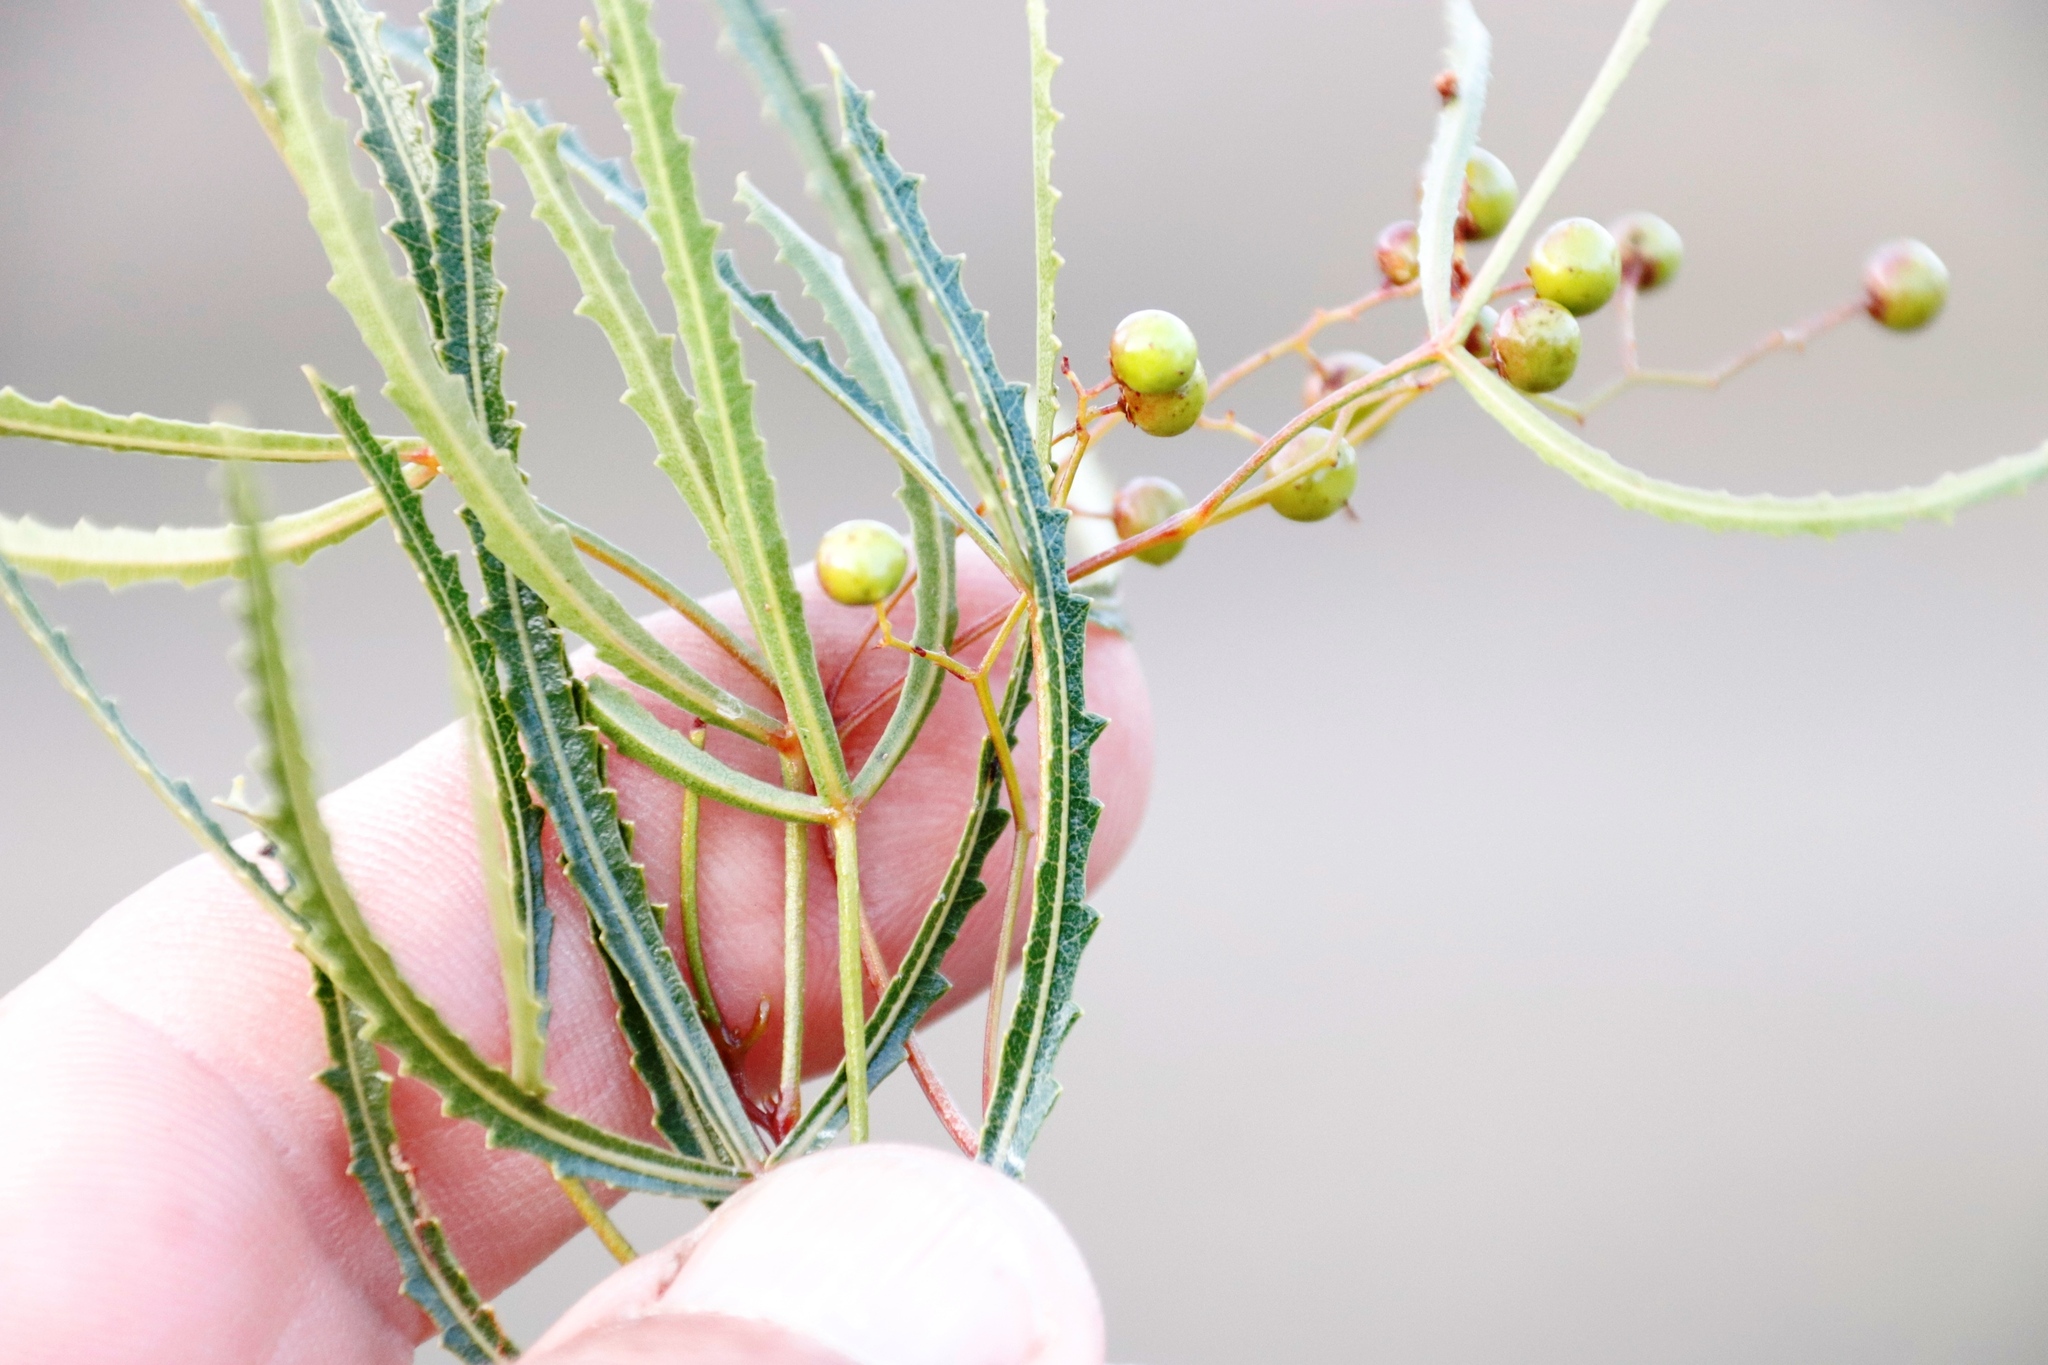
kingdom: Plantae
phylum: Tracheophyta
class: Magnoliopsida
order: Sapindales
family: Anacardiaceae
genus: Searsia
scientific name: Searsia erosa
